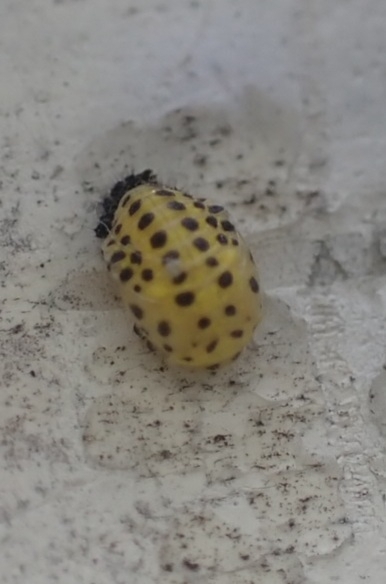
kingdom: Animalia
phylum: Arthropoda
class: Insecta
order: Coleoptera
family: Coccinellidae
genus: Psyllobora
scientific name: Psyllobora vigintiduopunctata
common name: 22-spot ladybird
